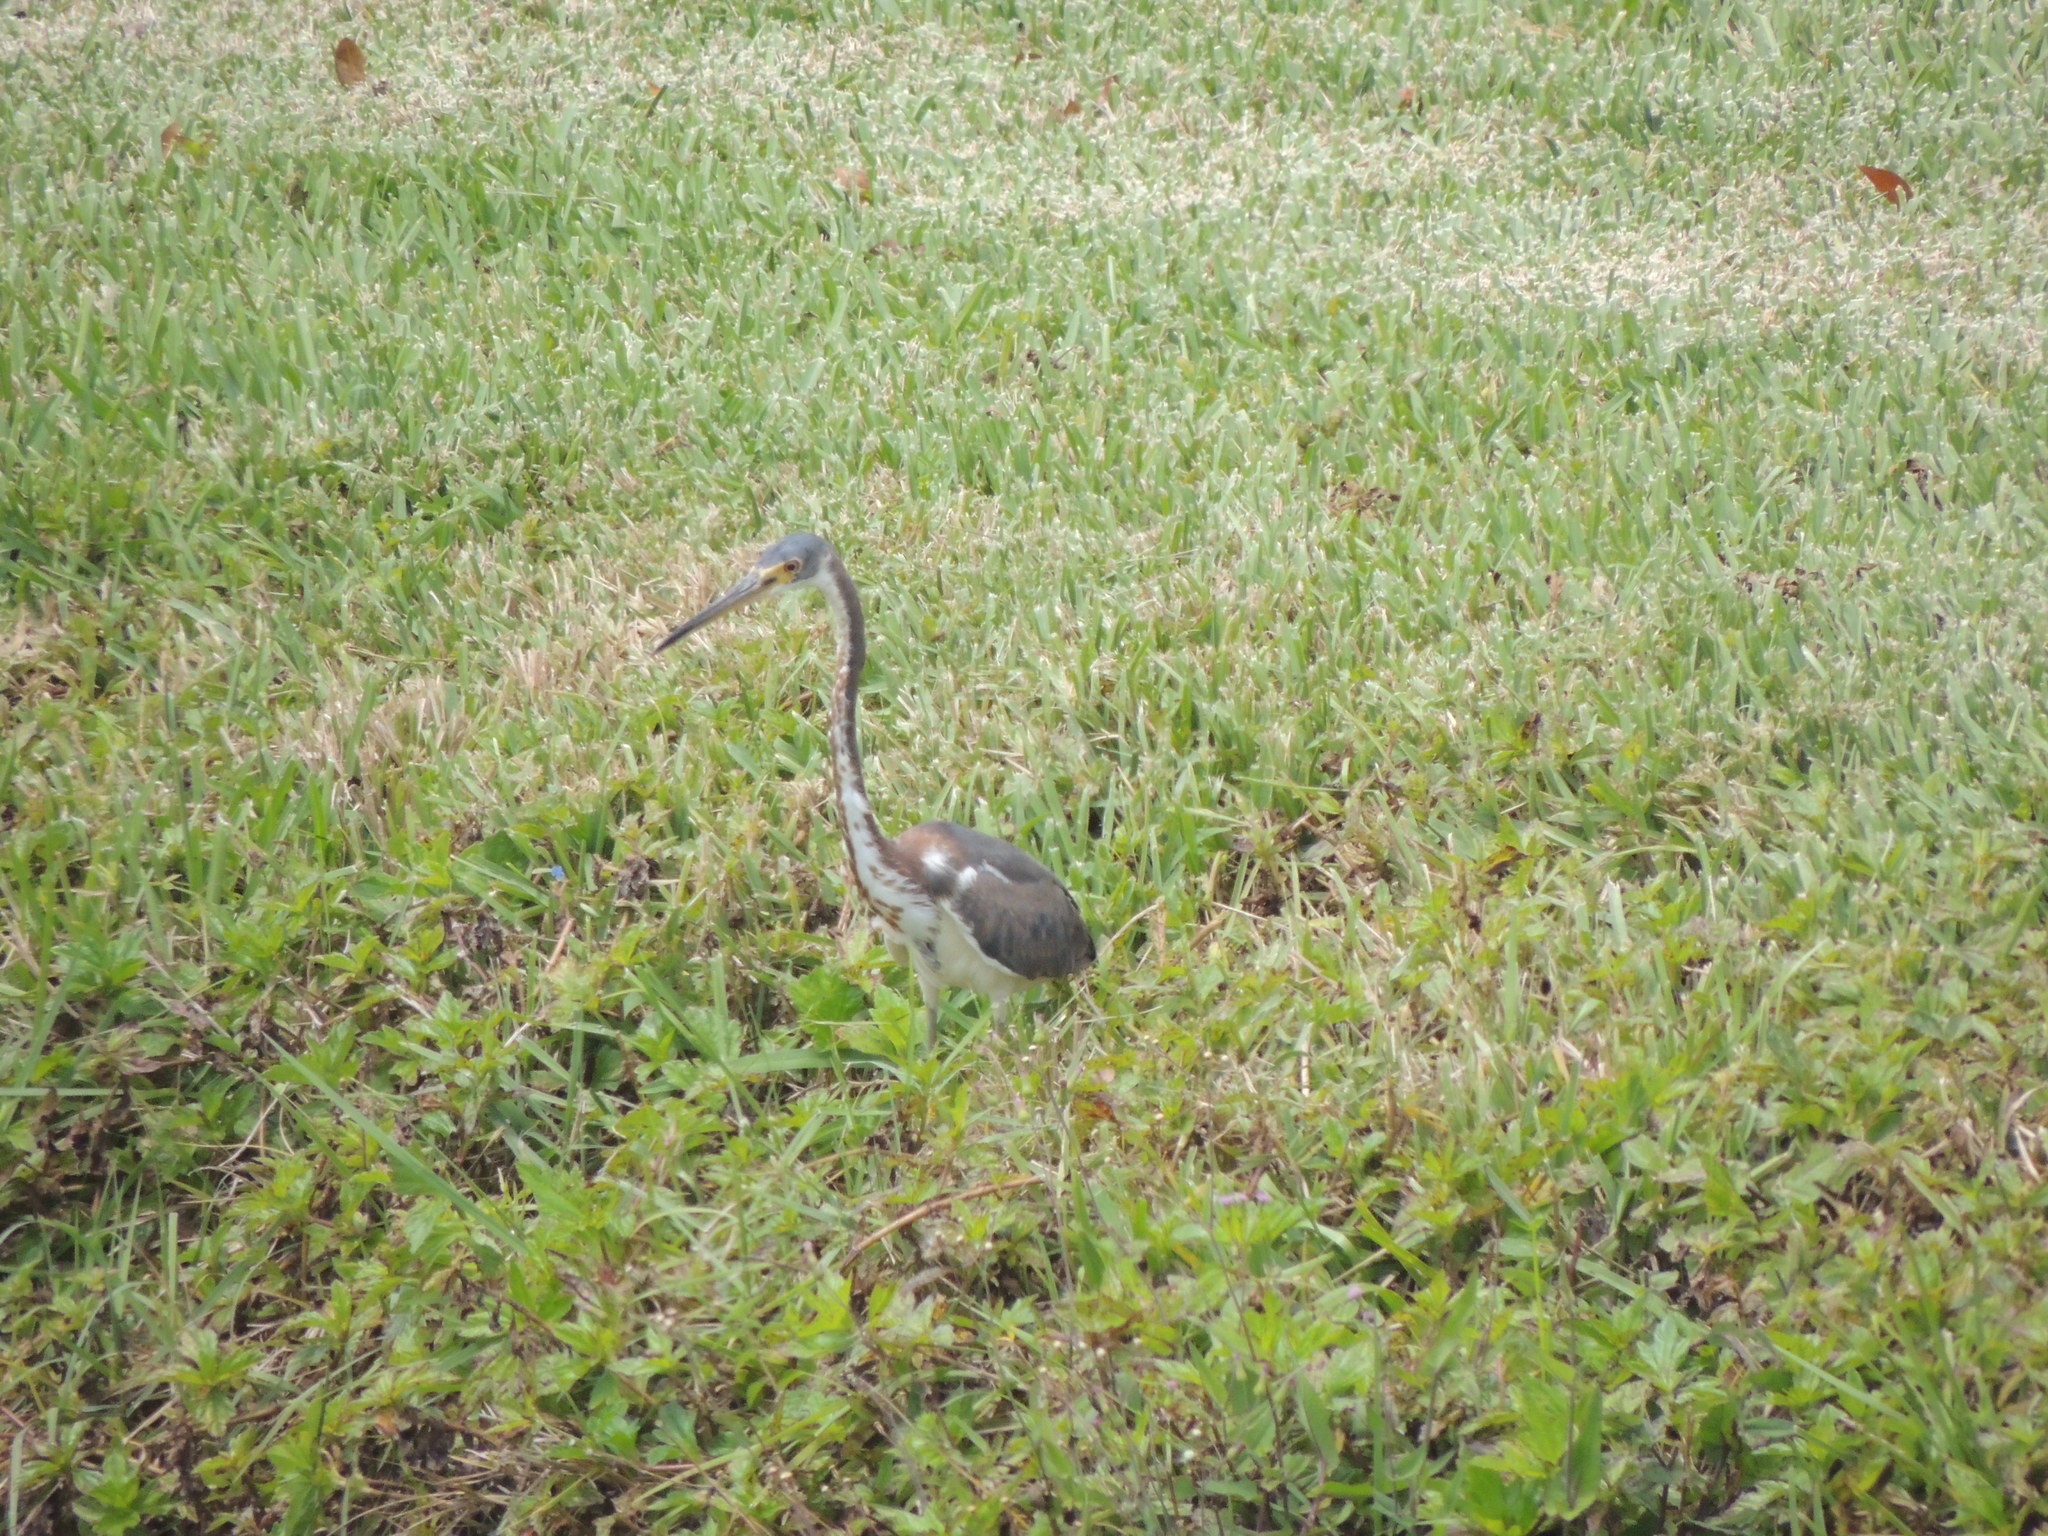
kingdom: Animalia
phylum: Chordata
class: Aves
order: Pelecaniformes
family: Ardeidae
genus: Egretta
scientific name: Egretta tricolor
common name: Tricolored heron
